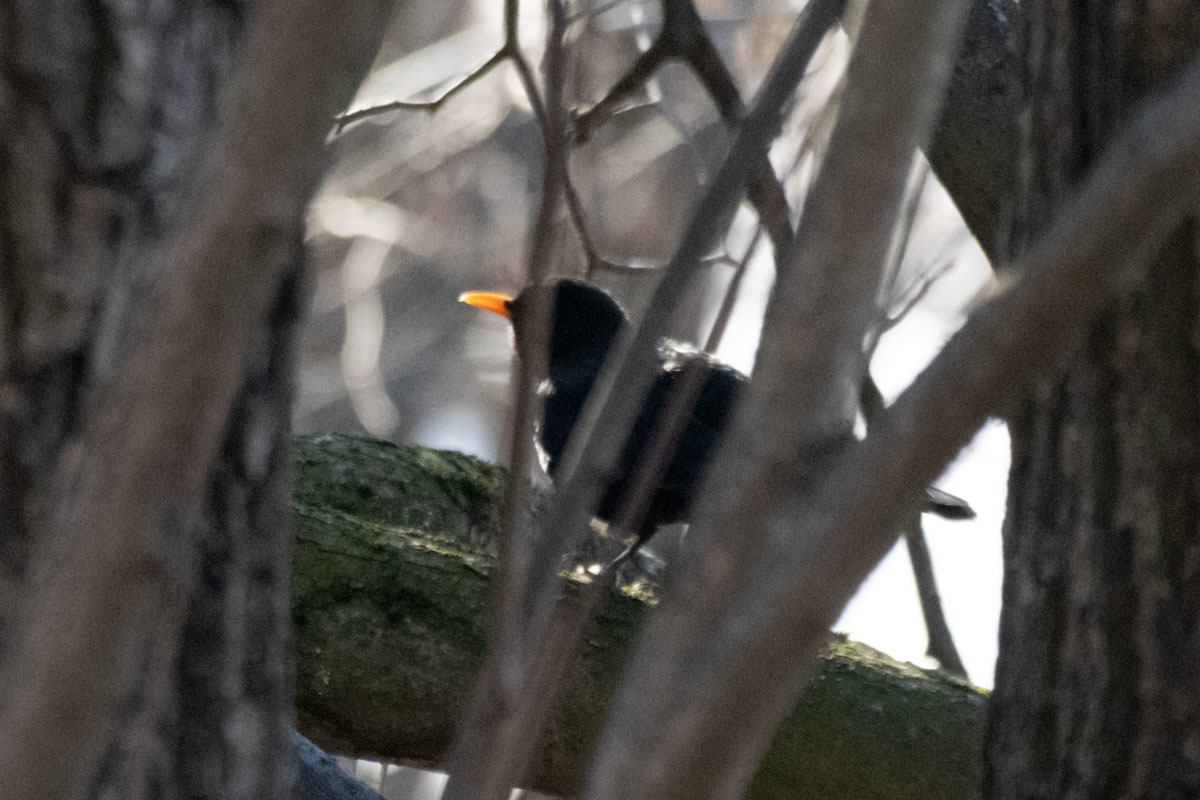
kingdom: Animalia
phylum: Chordata
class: Aves
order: Passeriformes
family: Turdidae
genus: Turdus
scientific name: Turdus merula
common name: Common blackbird
